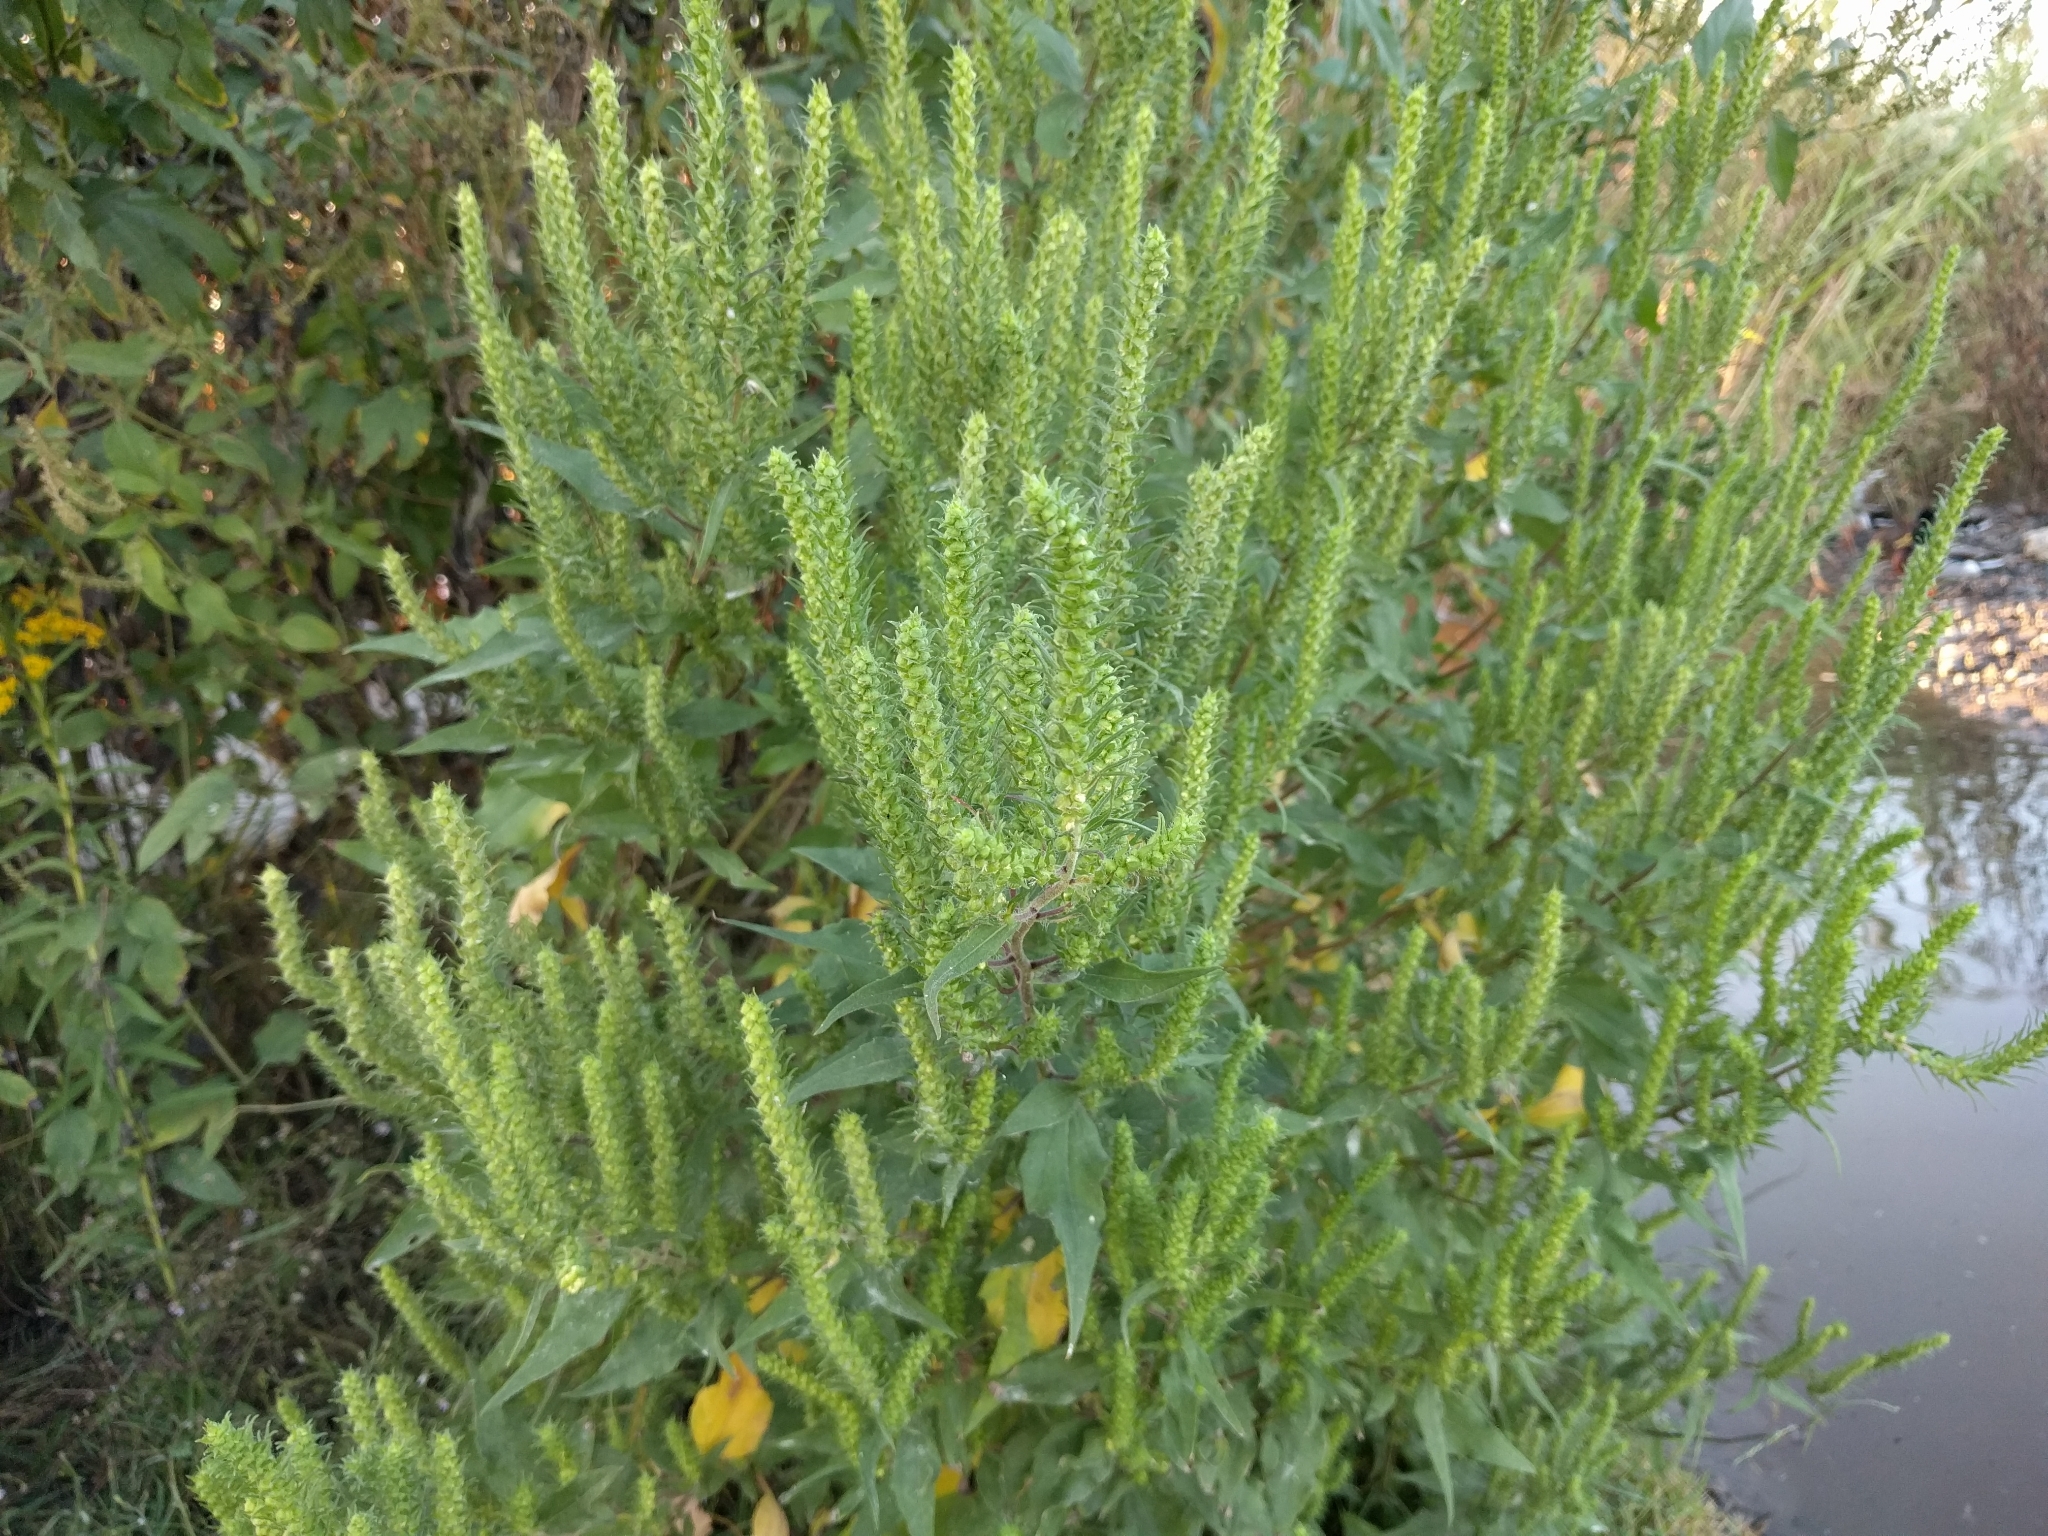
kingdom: Plantae
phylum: Tracheophyta
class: Magnoliopsida
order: Asterales
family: Asteraceae
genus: Ambrosia
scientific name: Ambrosia bidentata
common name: Southern ragweed
